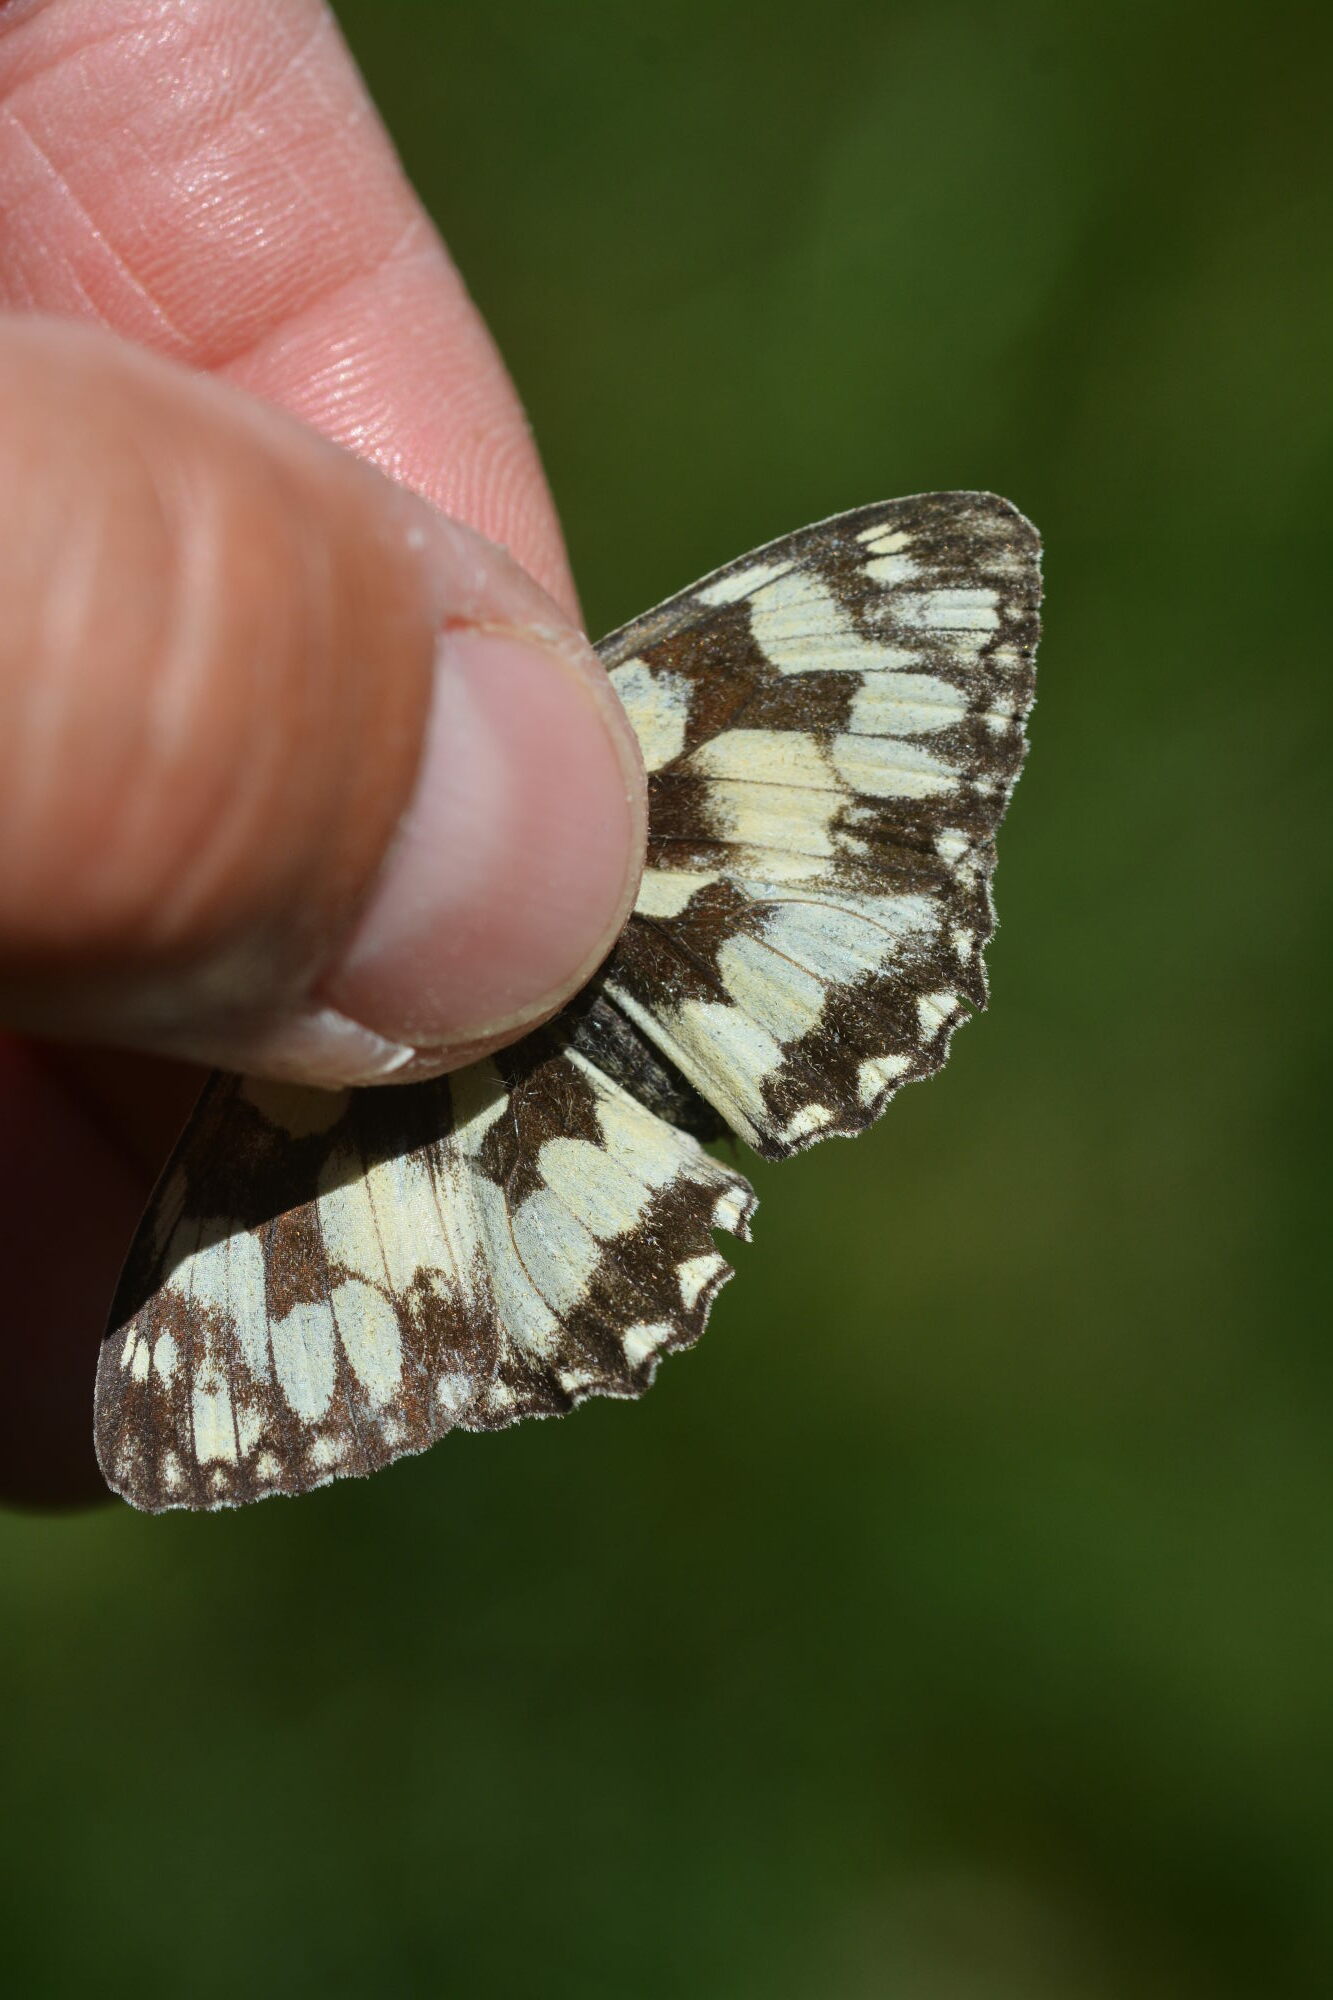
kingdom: Animalia
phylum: Arthropoda
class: Insecta
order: Lepidoptera
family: Nymphalidae
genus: Melanargia
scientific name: Melanargia galathea
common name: Marbled white
